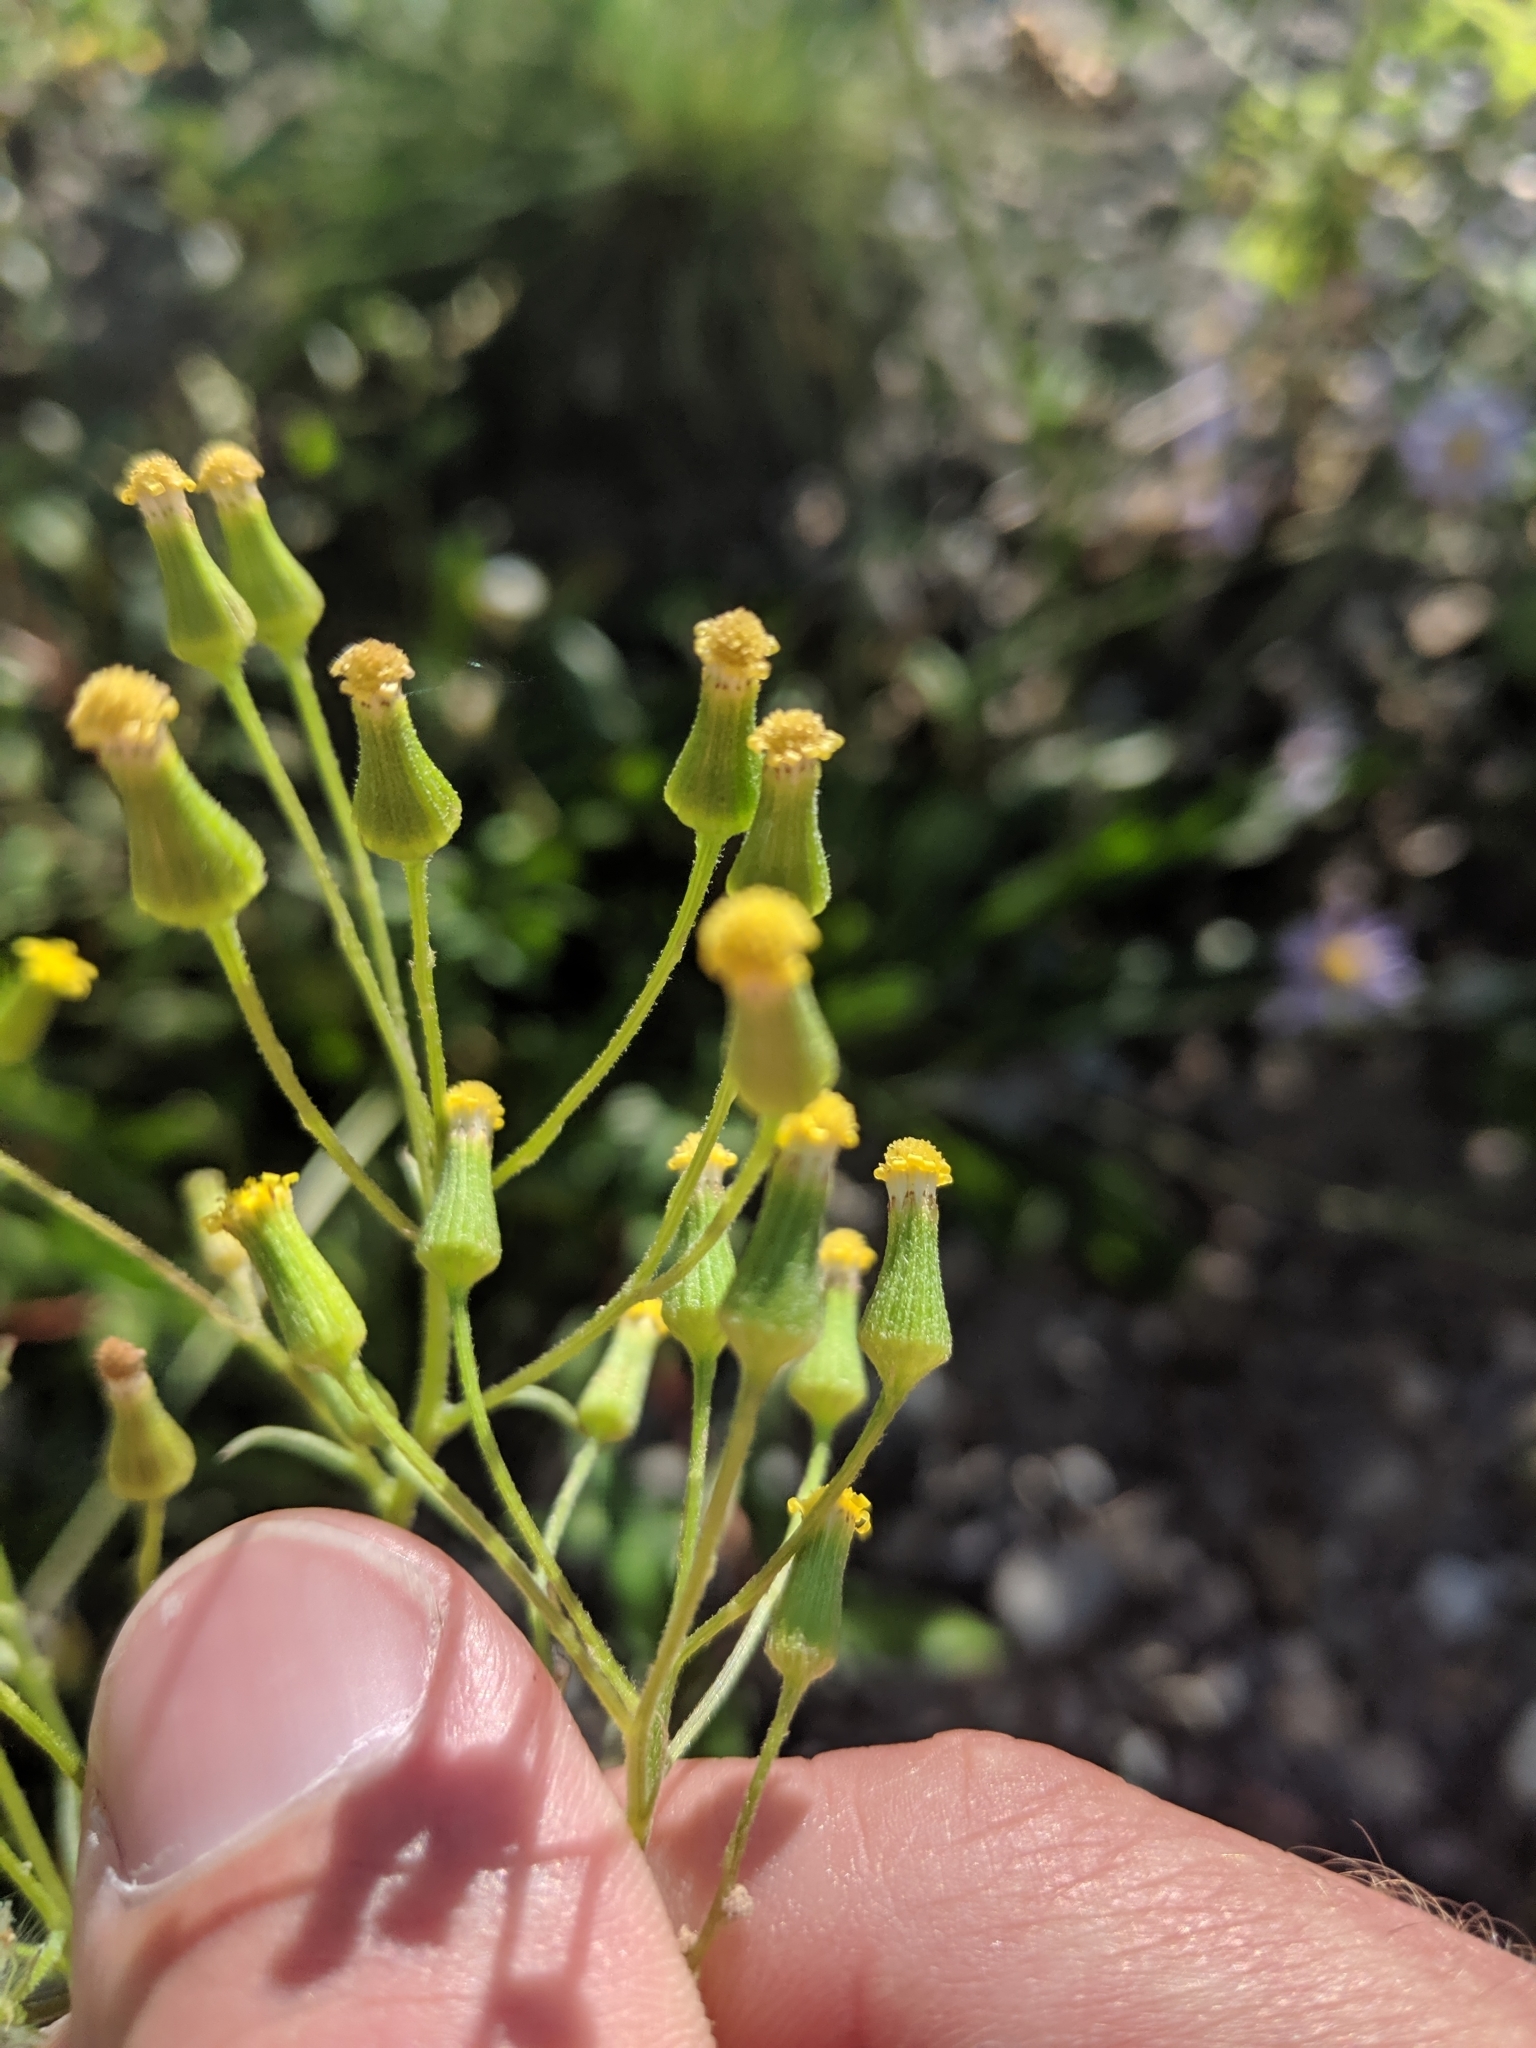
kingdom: Plantae
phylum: Tracheophyta
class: Magnoliopsida
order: Asterales
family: Asteraceae
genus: Senecio
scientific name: Senecio sylvaticus
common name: Woodland ragwort
